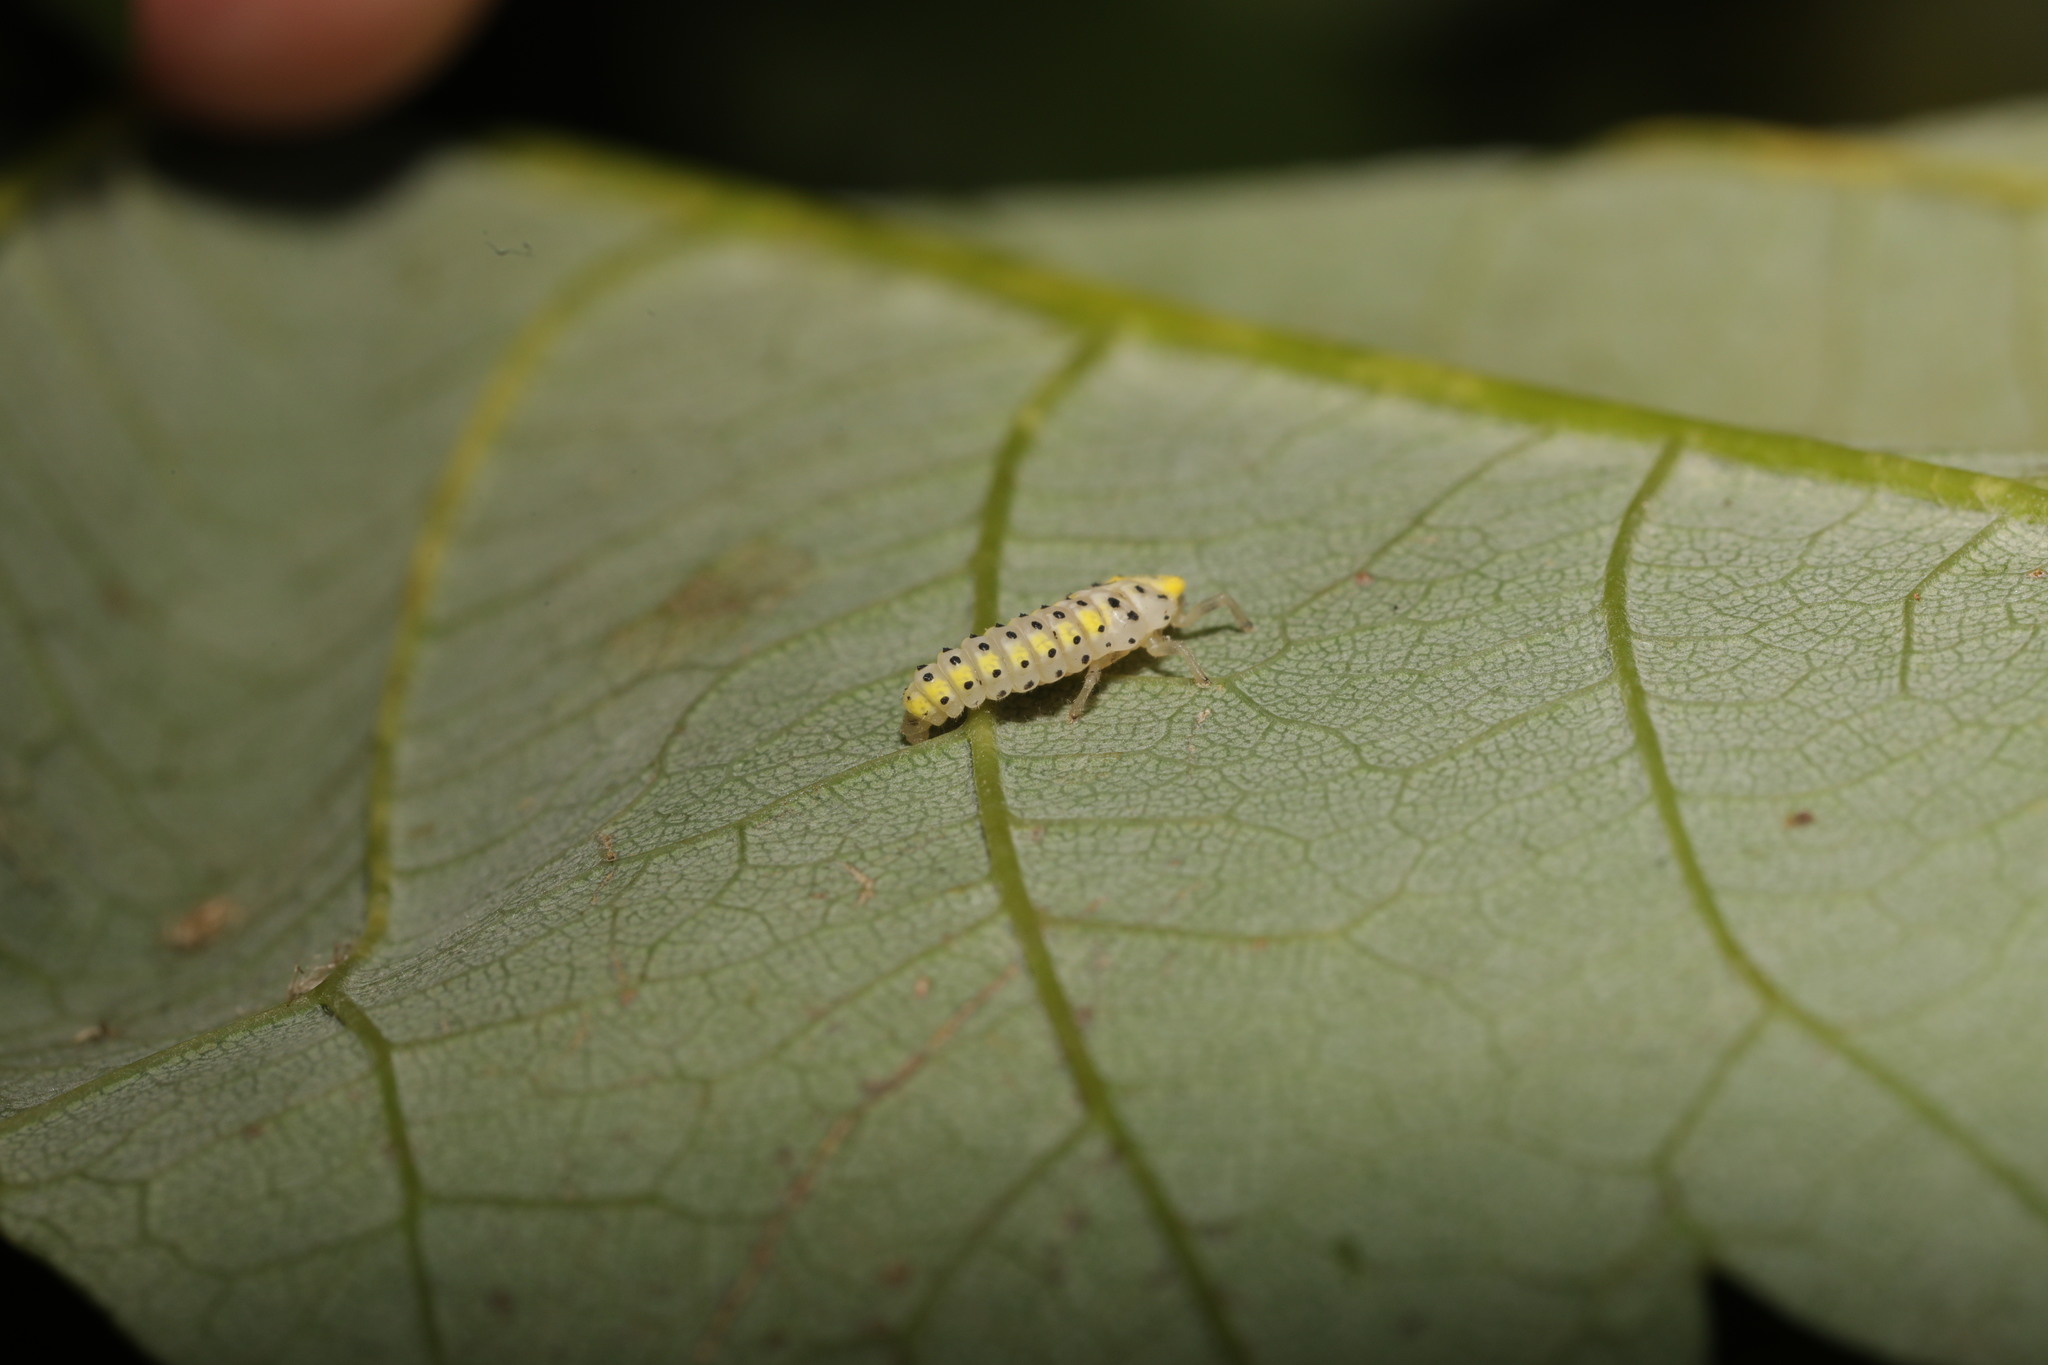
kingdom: Animalia
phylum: Arthropoda
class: Insecta
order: Coleoptera
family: Coccinellidae
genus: Halyzia
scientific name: Halyzia sedecimguttata
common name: Orange ladybird
